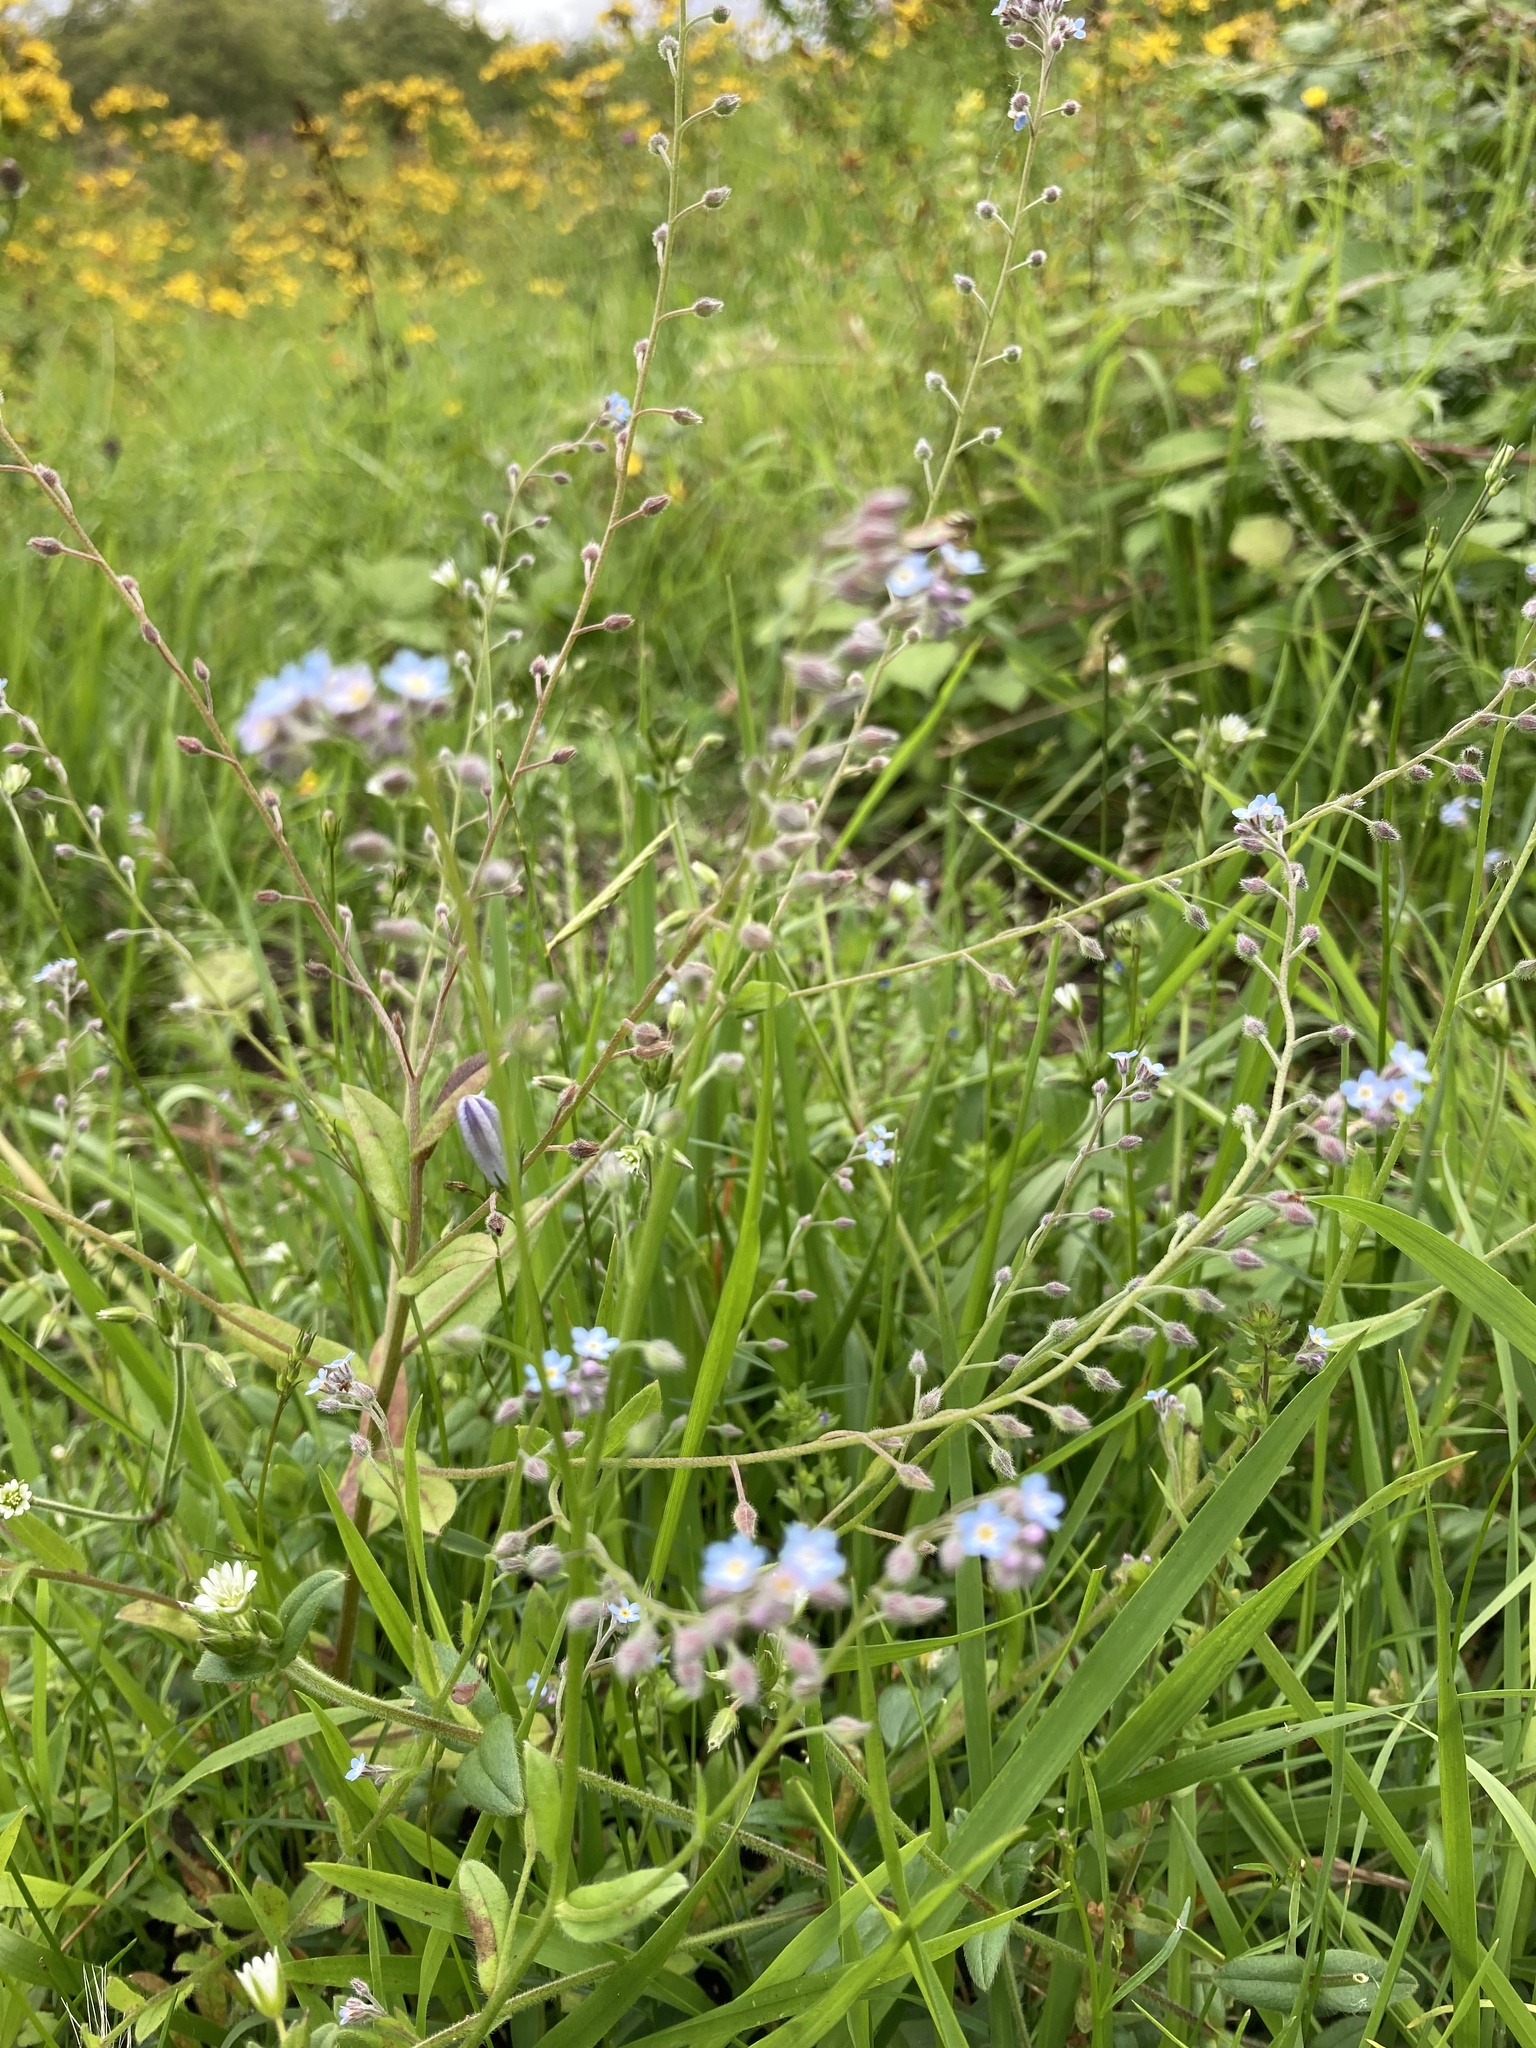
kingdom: Plantae
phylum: Tracheophyta
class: Magnoliopsida
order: Boraginales
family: Boraginaceae
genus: Myosotis
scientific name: Myosotis arvensis
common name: Field forget-me-not
